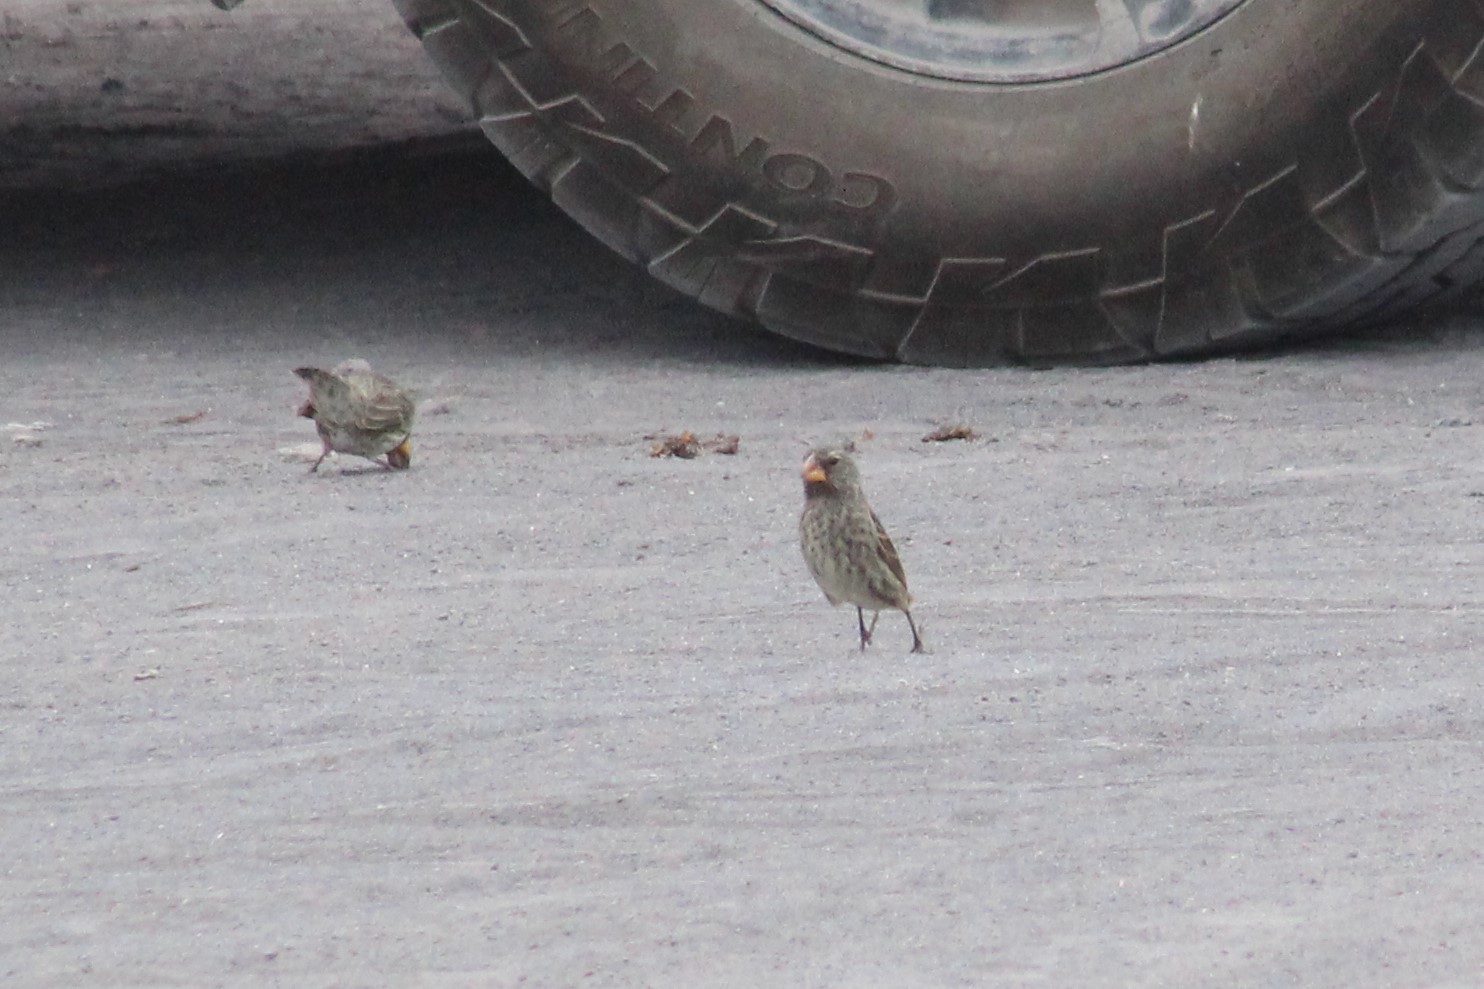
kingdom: Animalia
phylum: Chordata
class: Aves
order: Passeriformes
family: Thraupidae
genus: Geospiza
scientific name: Geospiza magnirostris
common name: Large ground-finch
